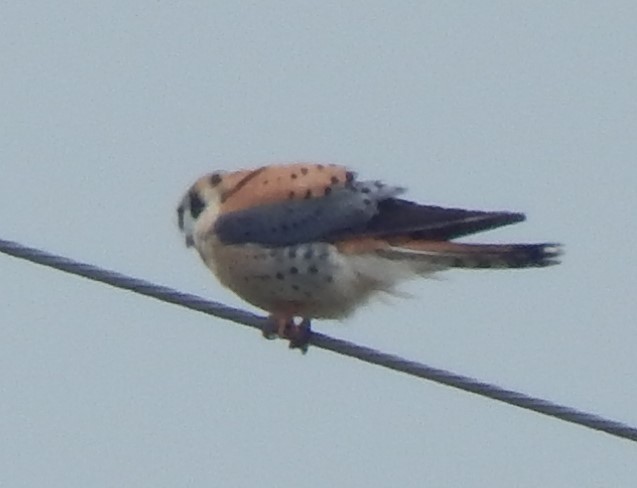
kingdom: Animalia
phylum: Chordata
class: Aves
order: Falconiformes
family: Falconidae
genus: Falco
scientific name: Falco sparverius
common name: American kestrel
